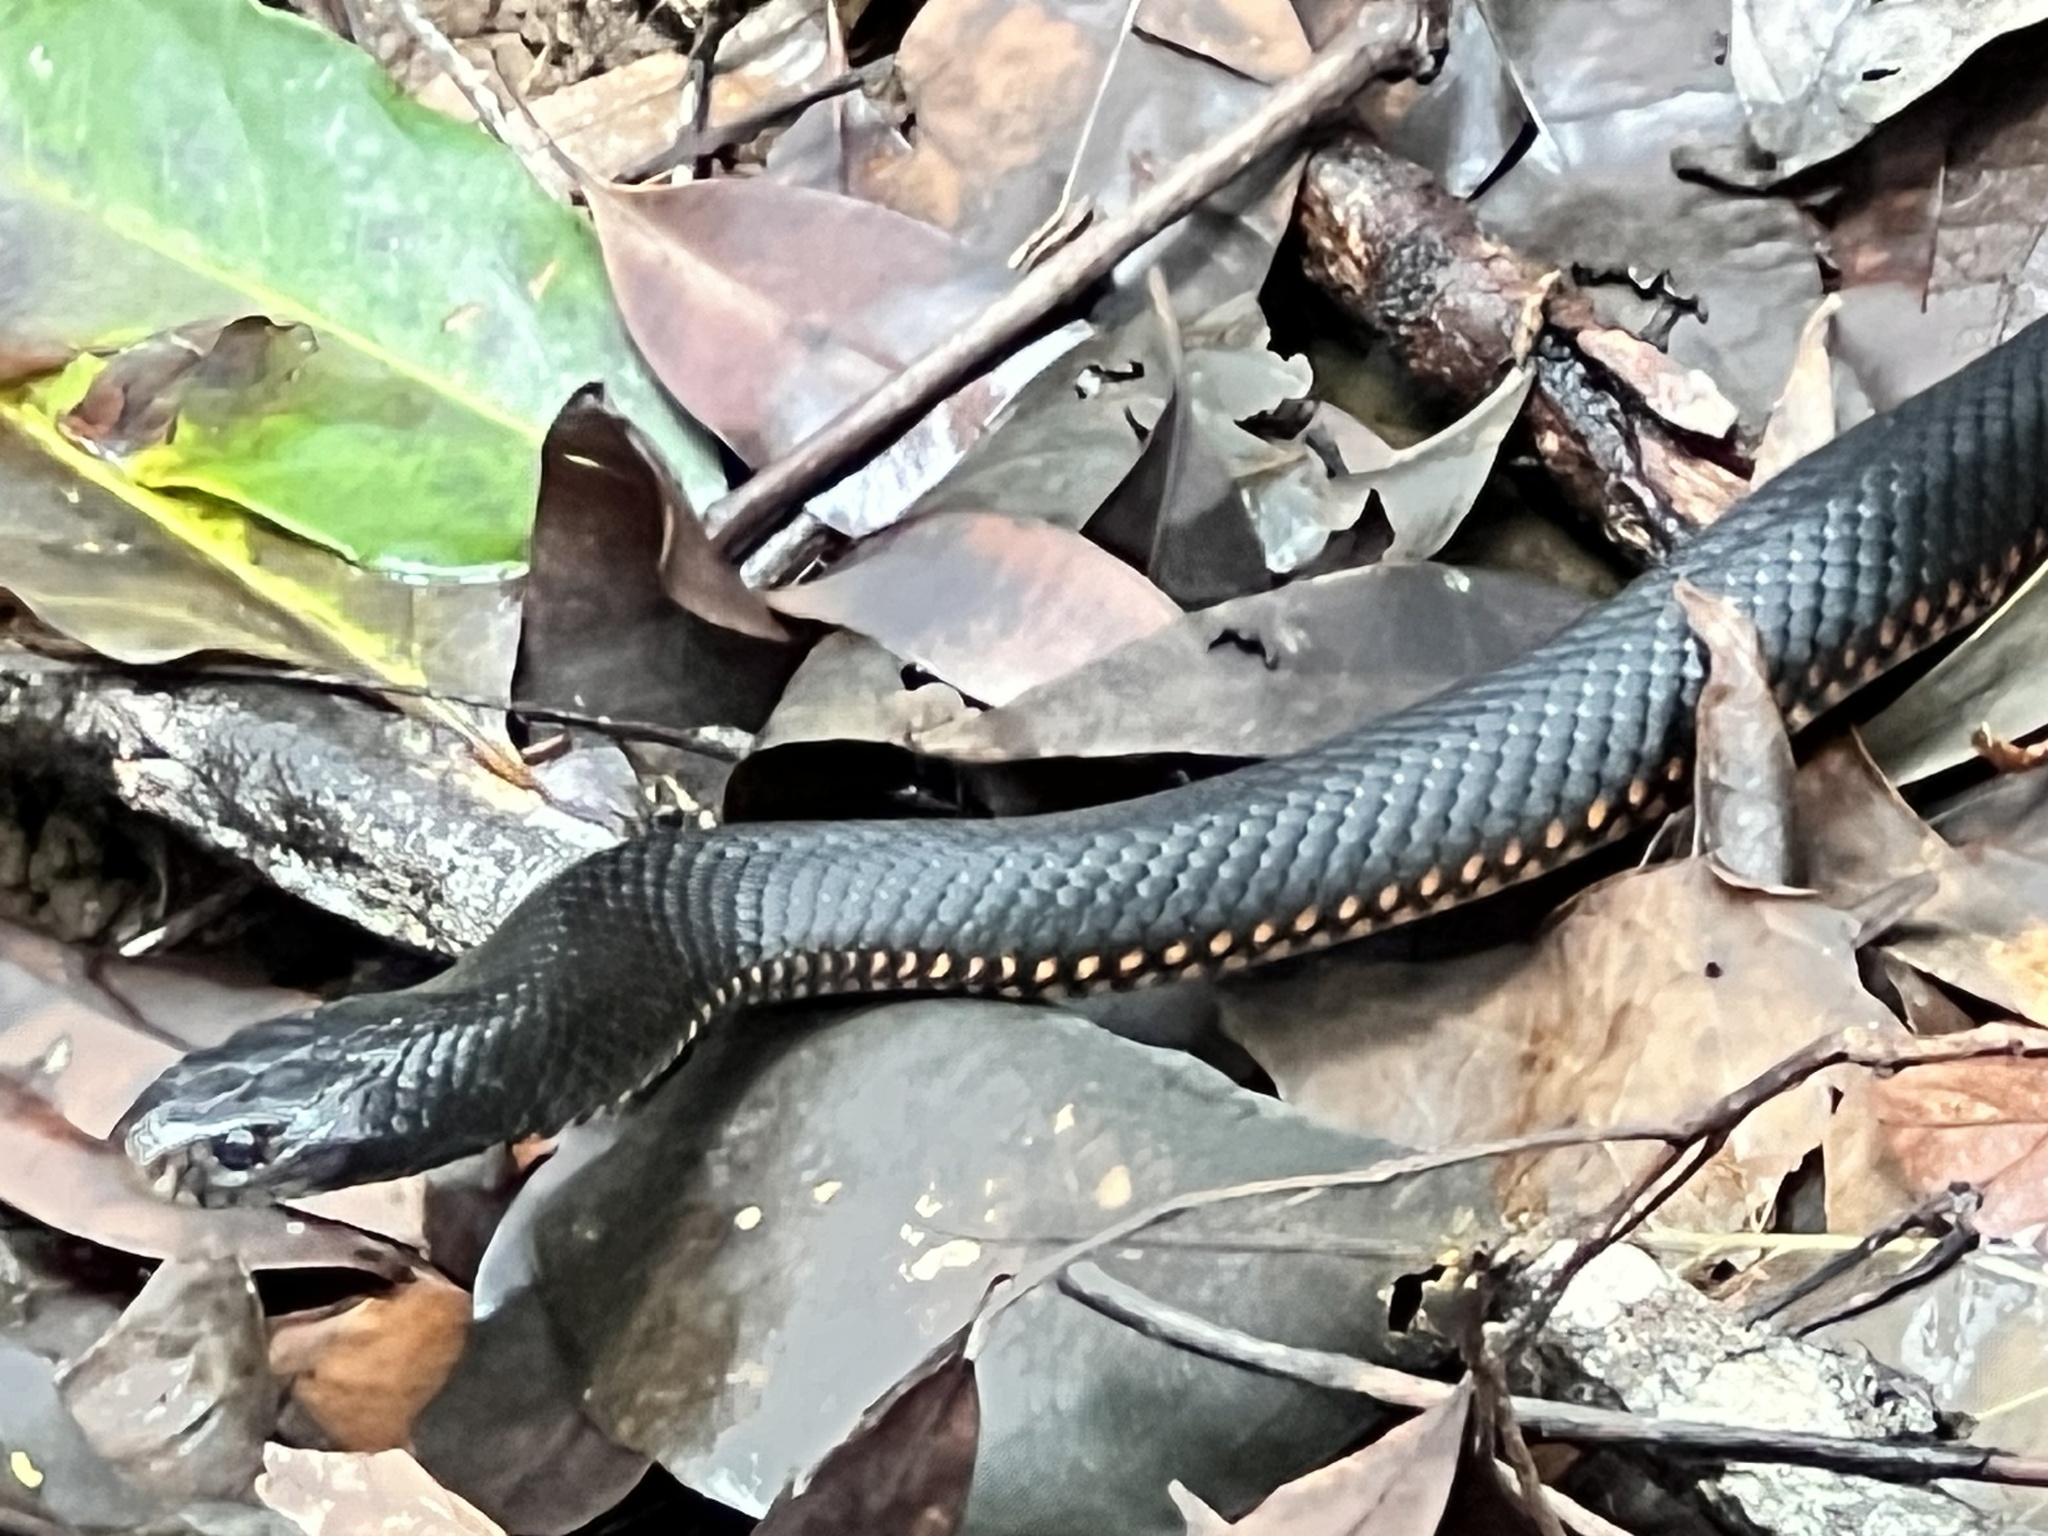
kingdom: Animalia
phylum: Chordata
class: Squamata
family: Elapidae
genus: Pseudechis
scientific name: Pseudechis porphyriacus
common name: Australian black snake
